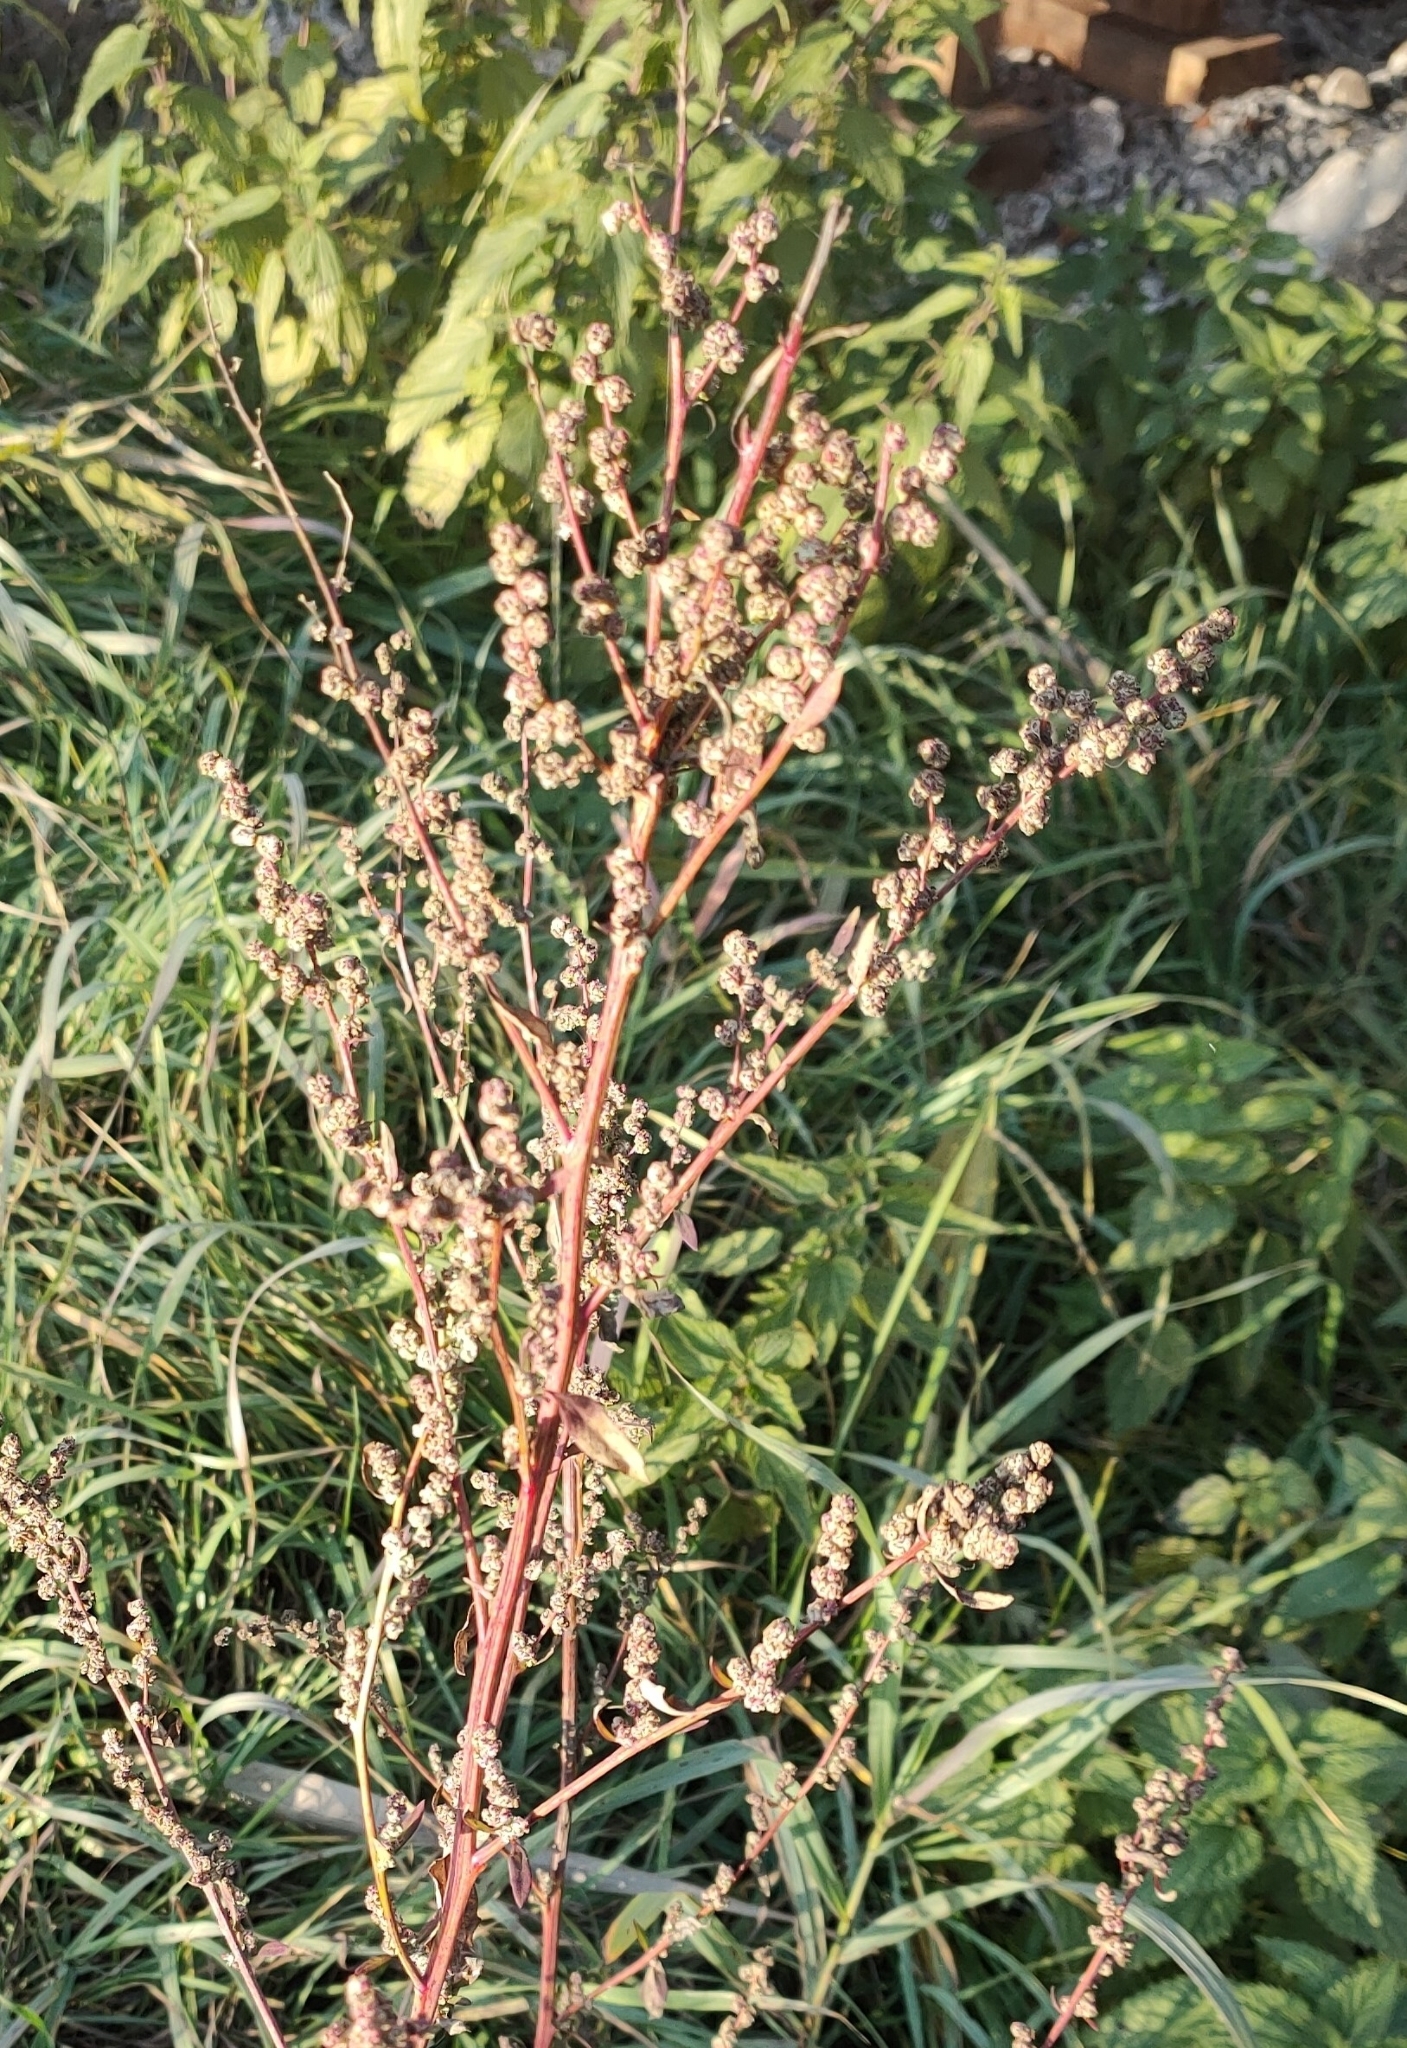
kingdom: Plantae
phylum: Tracheophyta
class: Magnoliopsida
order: Caryophyllales
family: Amaranthaceae
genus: Chenopodium
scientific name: Chenopodium album
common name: Fat-hen
